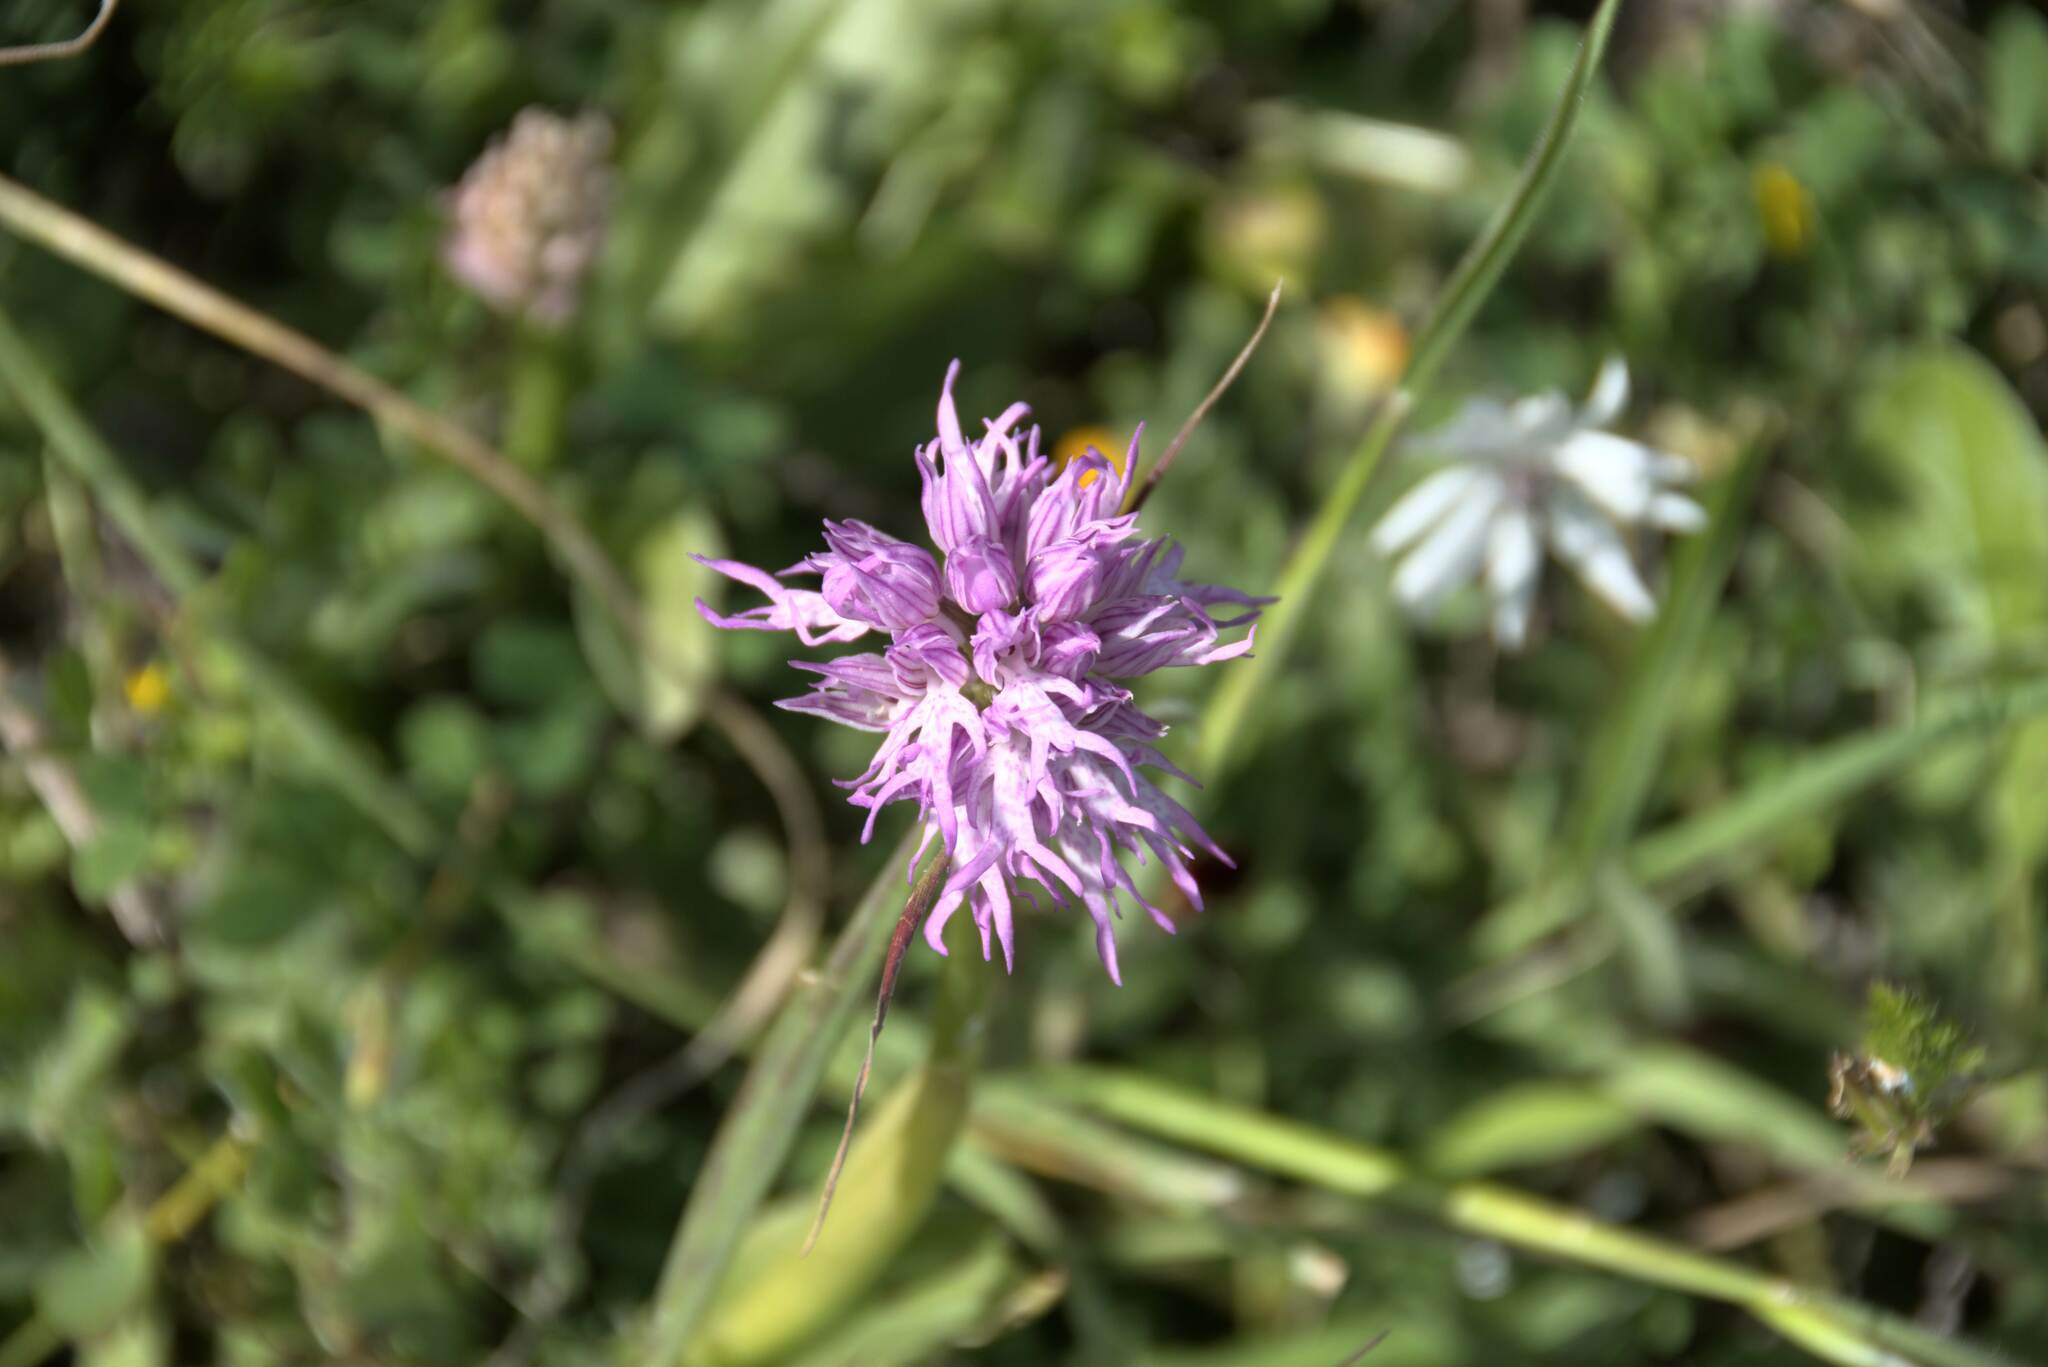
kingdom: Plantae
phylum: Tracheophyta
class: Liliopsida
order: Asparagales
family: Orchidaceae
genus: Orchis
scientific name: Orchis italica
